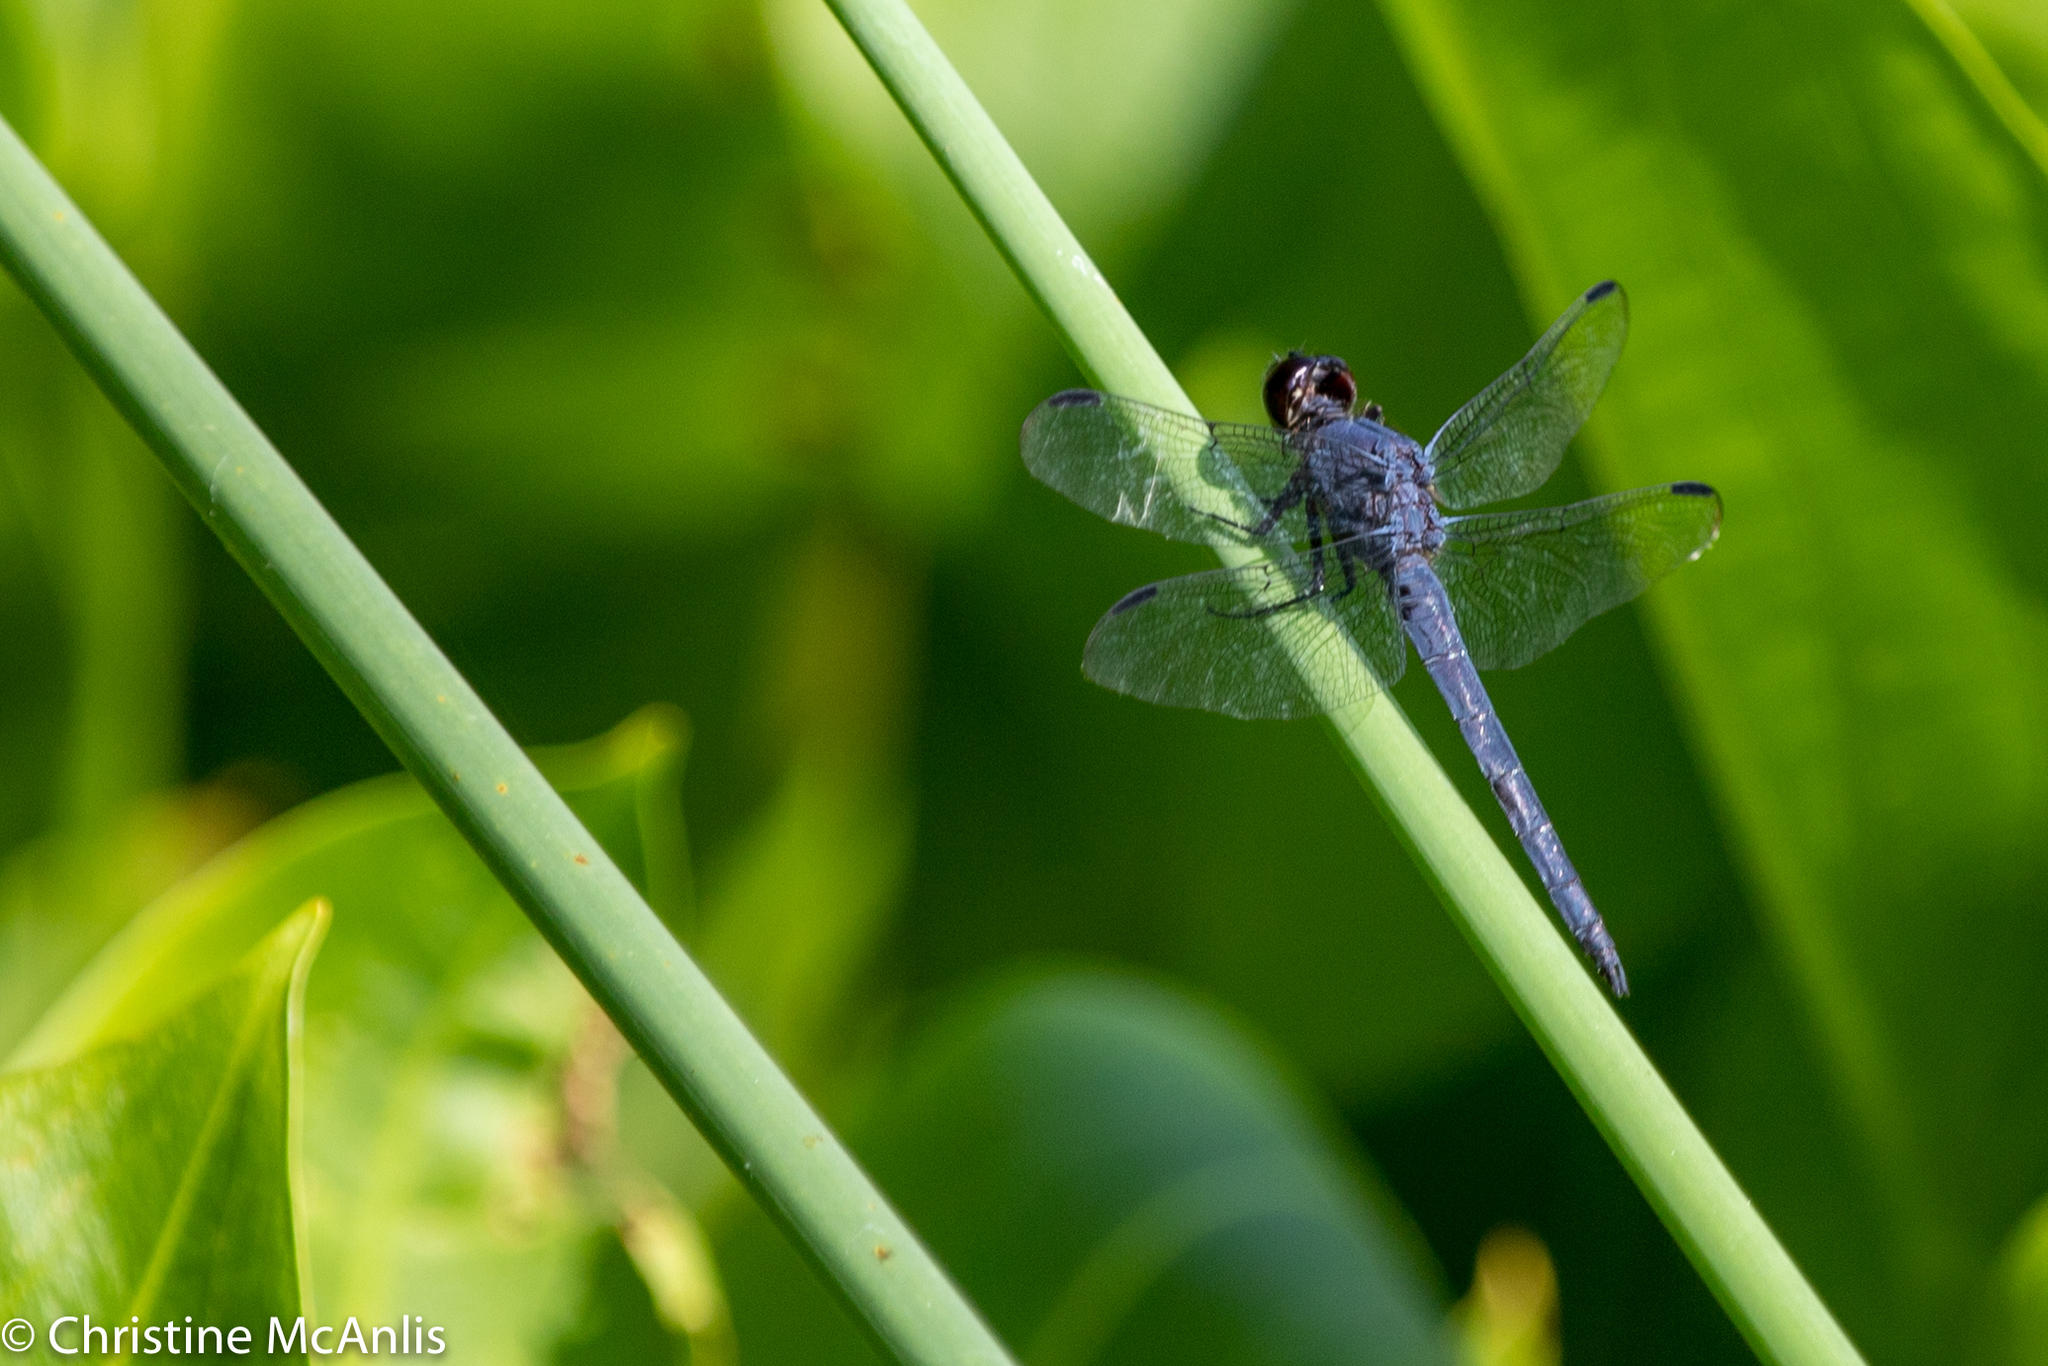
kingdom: Animalia
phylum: Arthropoda
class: Insecta
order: Odonata
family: Libellulidae
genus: Libellula
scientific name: Libellula incesta
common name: Slaty skimmer
